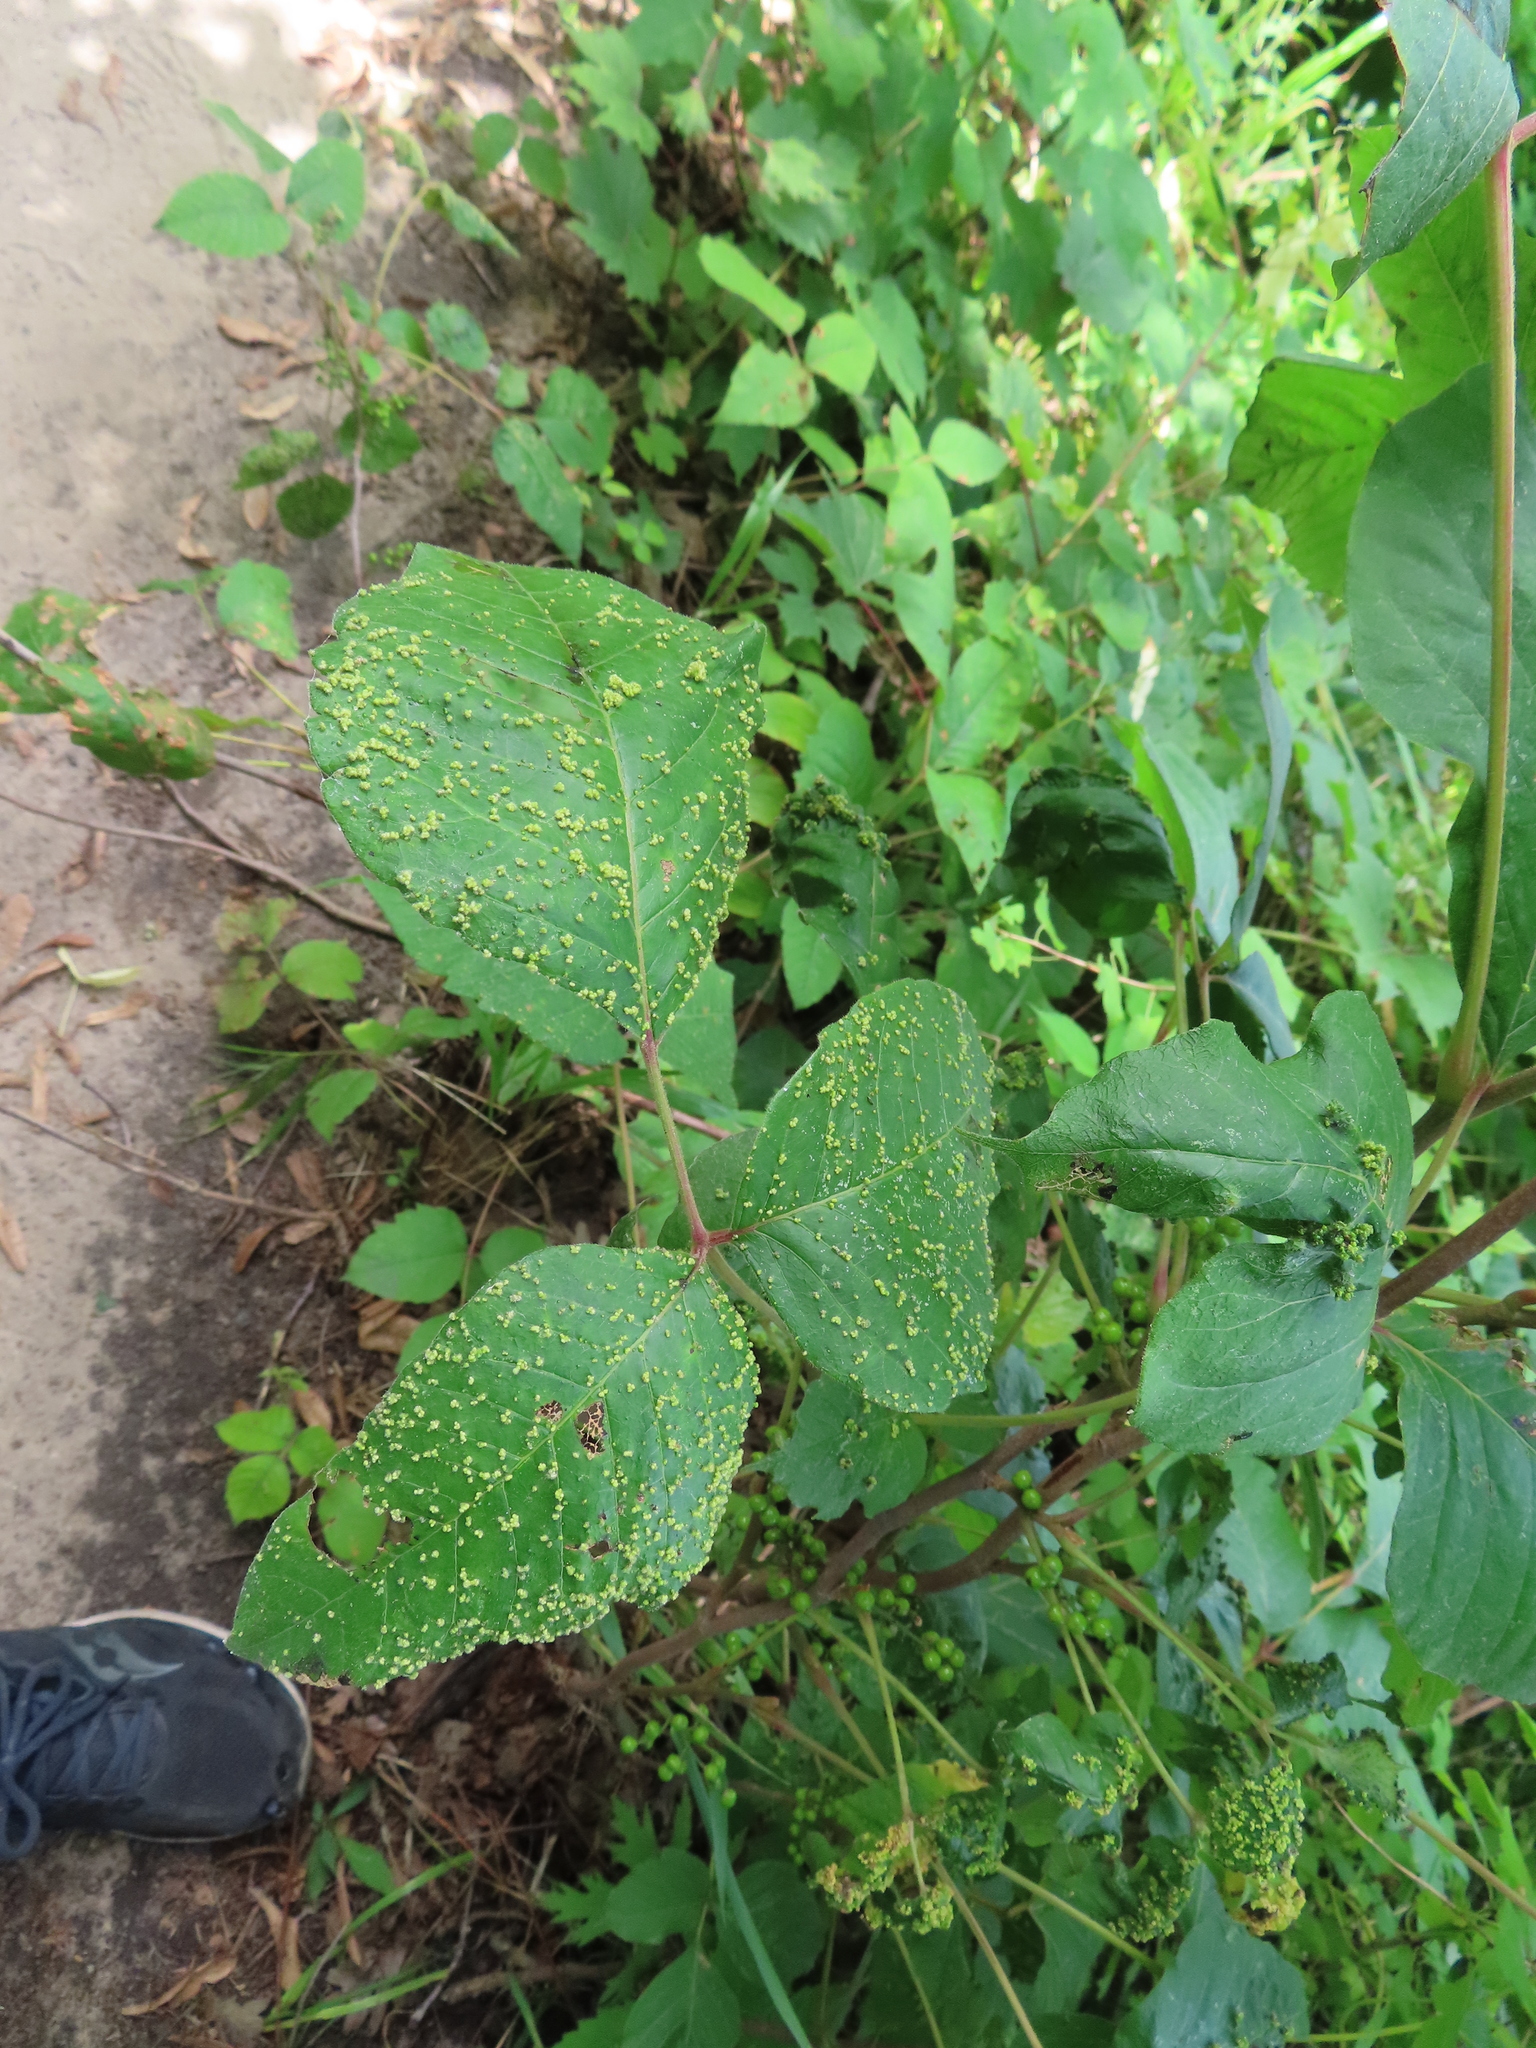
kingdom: Animalia
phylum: Arthropoda
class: Arachnida
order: Trombidiformes
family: Eriophyidae
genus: Aculops
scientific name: Aculops
